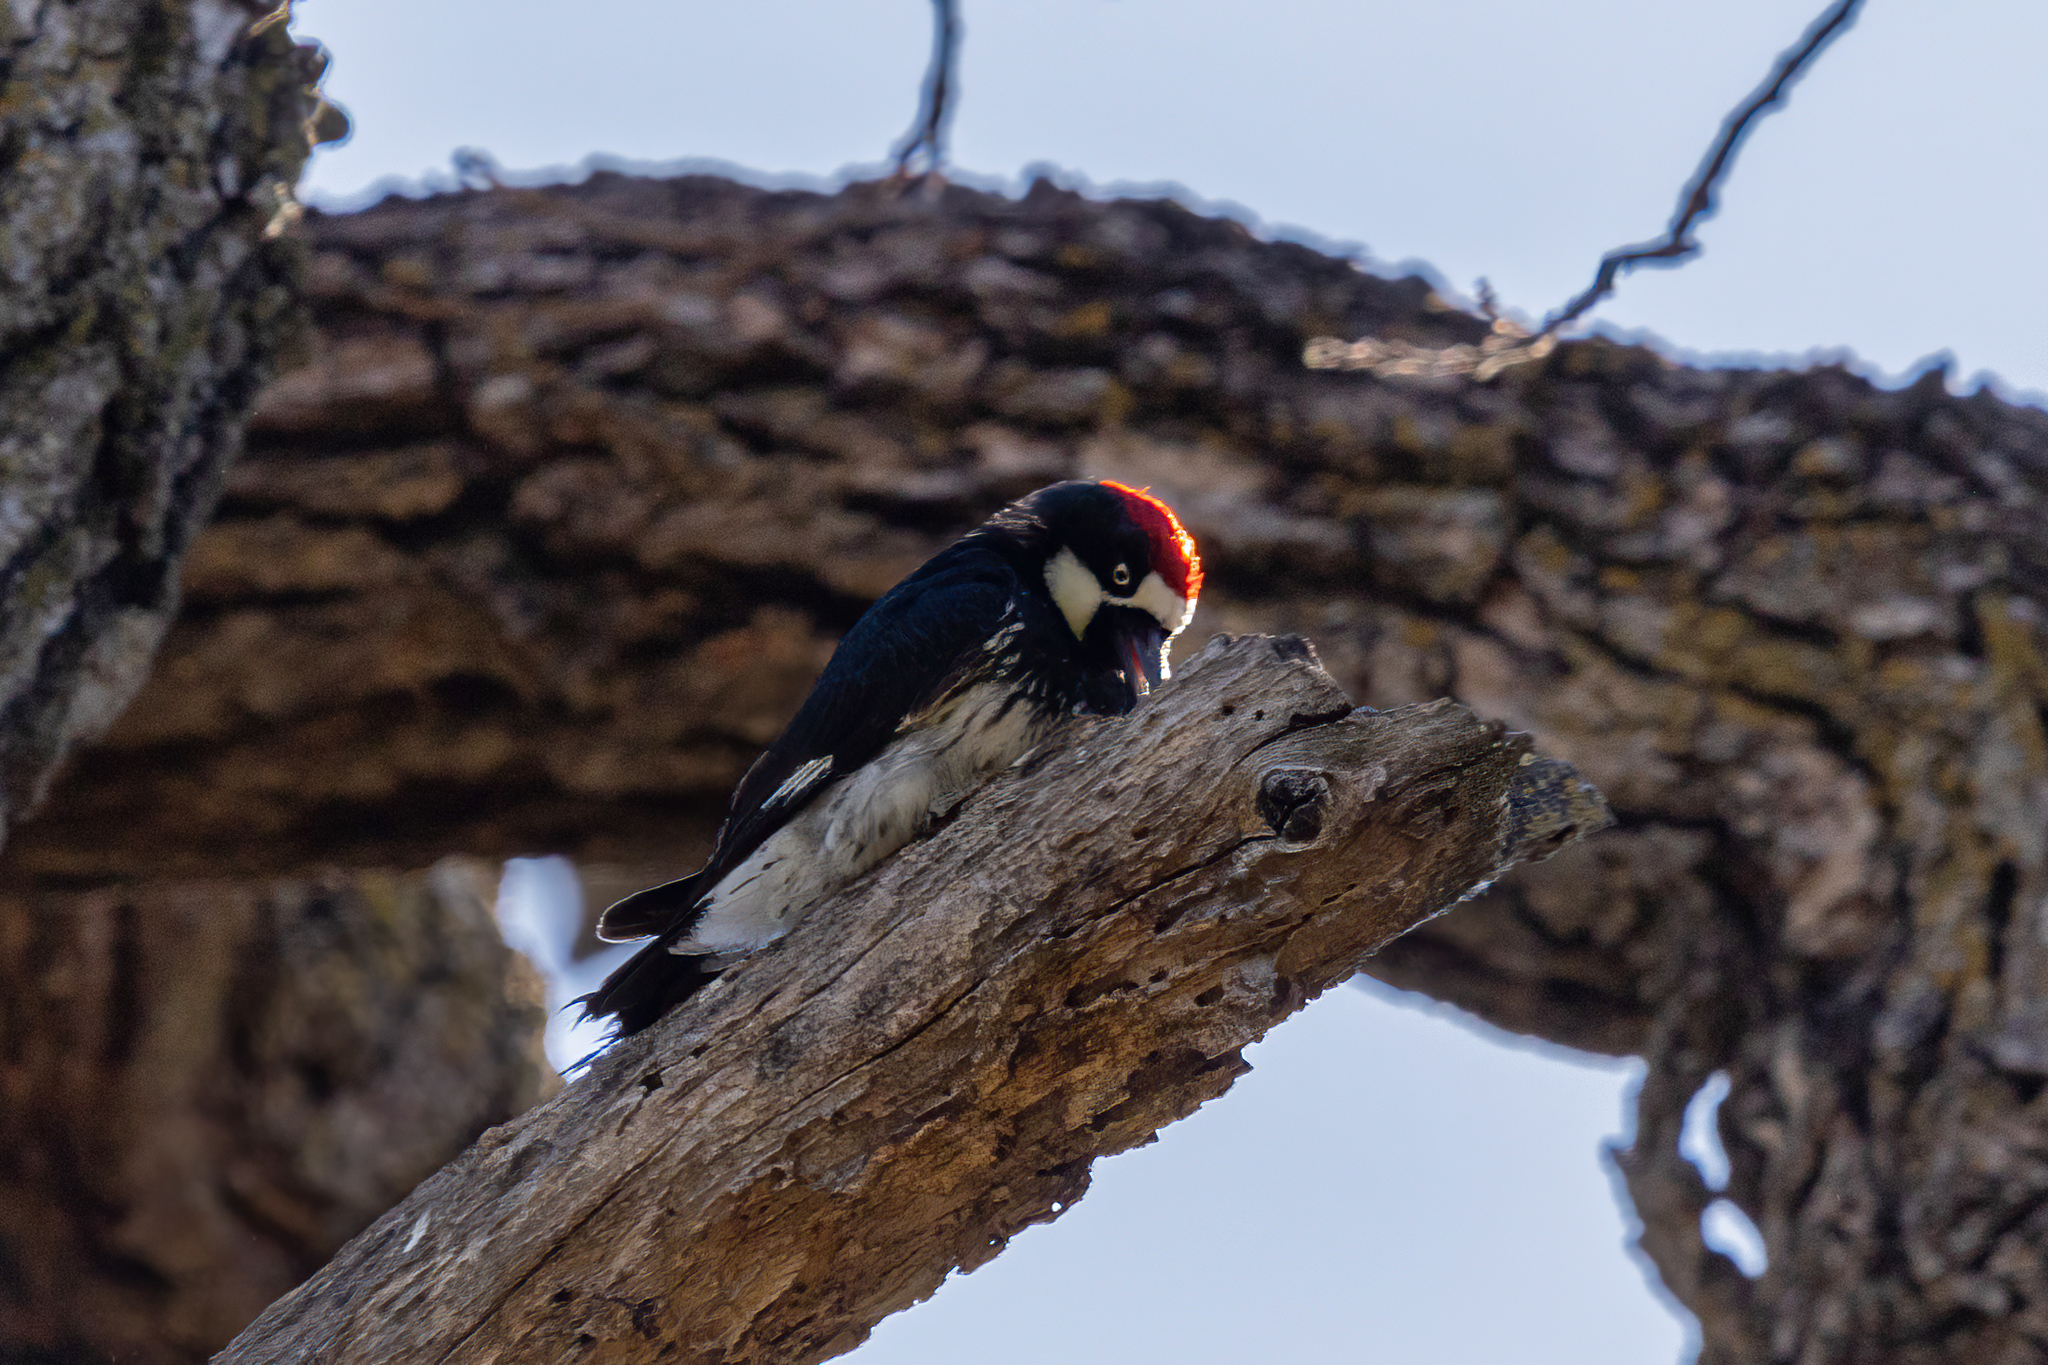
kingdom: Animalia
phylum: Chordata
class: Aves
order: Piciformes
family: Picidae
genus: Melanerpes
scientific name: Melanerpes formicivorus
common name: Acorn woodpecker
